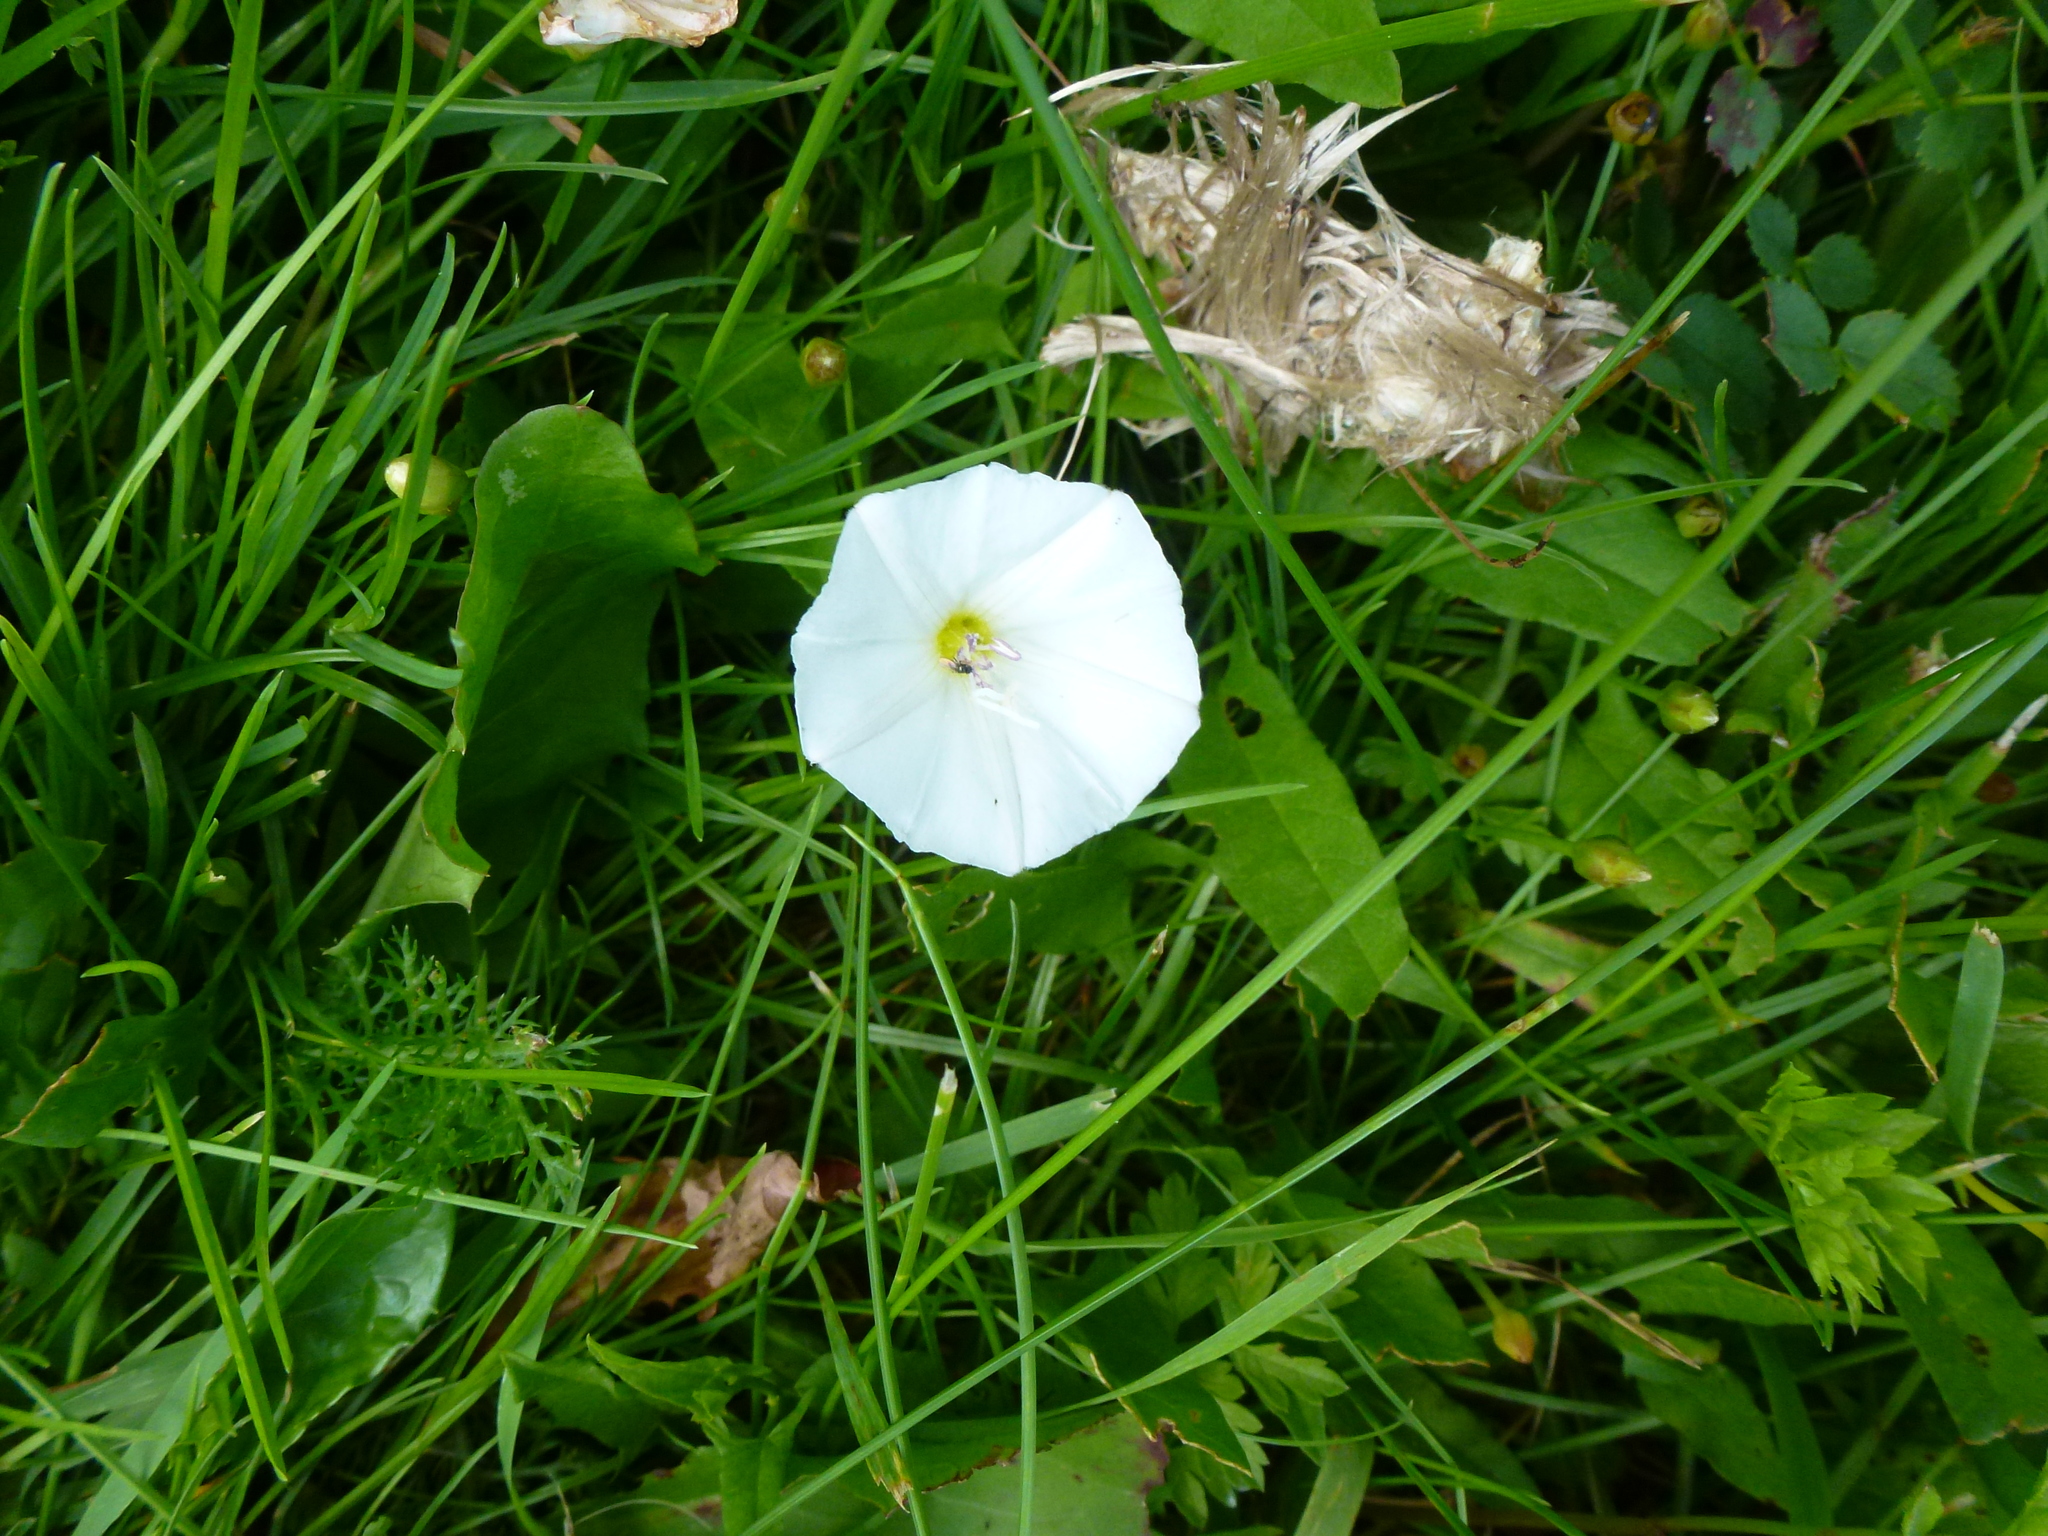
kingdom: Plantae
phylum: Tracheophyta
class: Magnoliopsida
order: Solanales
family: Convolvulaceae
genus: Convolvulus
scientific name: Convolvulus arvensis
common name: Field bindweed
